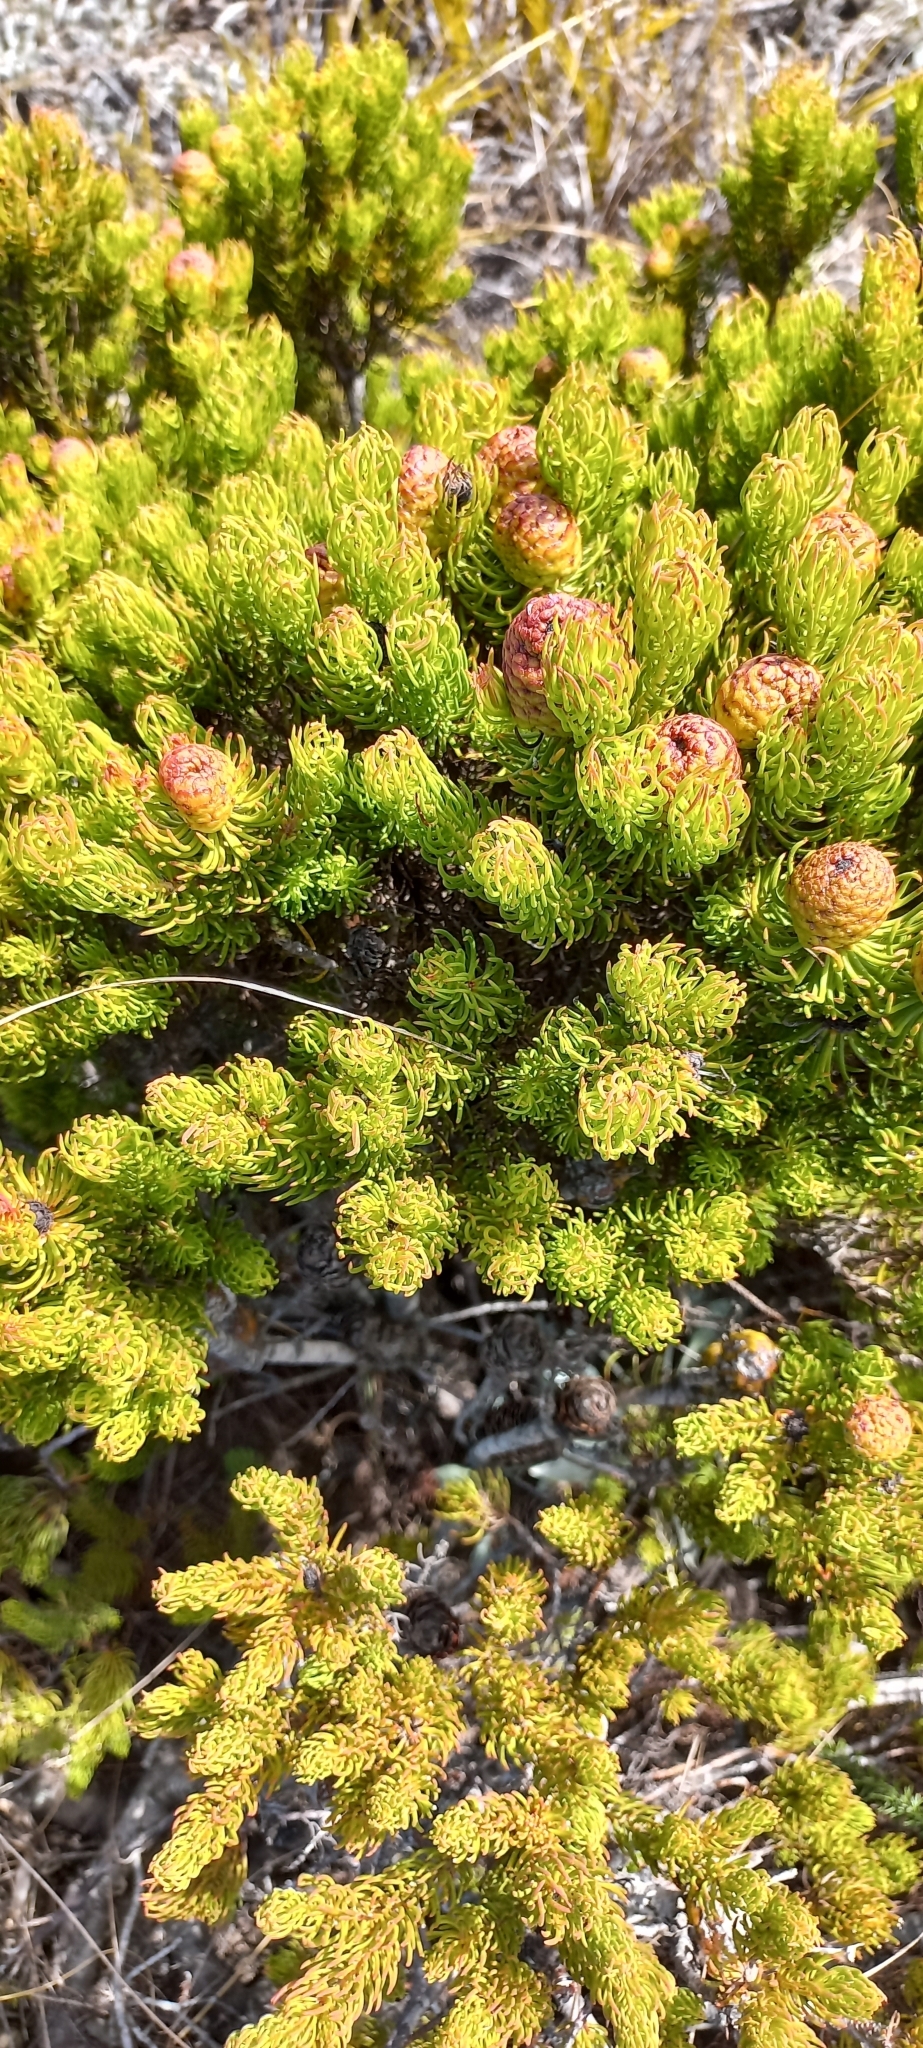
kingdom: Plantae
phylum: Tracheophyta
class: Magnoliopsida
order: Proteales
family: Proteaceae
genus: Leucadendron
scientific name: Leucadendron teretifolium
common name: Needle-leaf conebush
